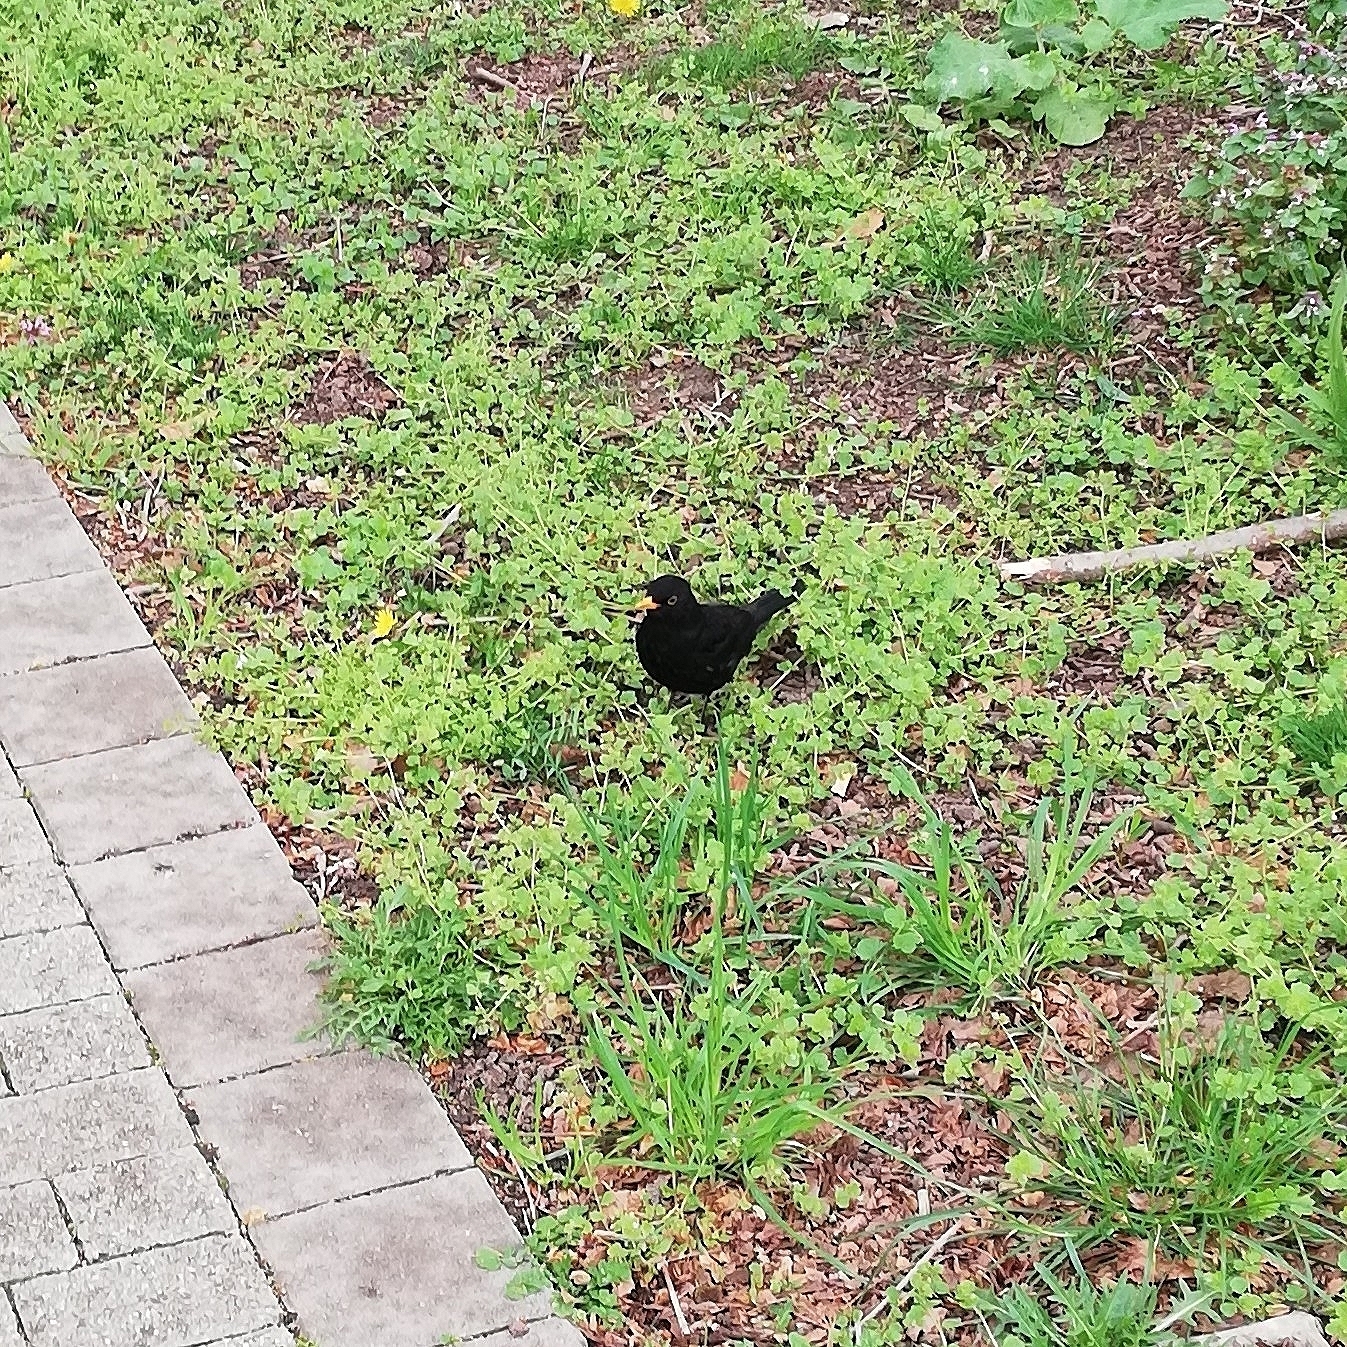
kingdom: Animalia
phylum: Chordata
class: Aves
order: Passeriformes
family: Turdidae
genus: Turdus
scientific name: Turdus merula
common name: Common blackbird
